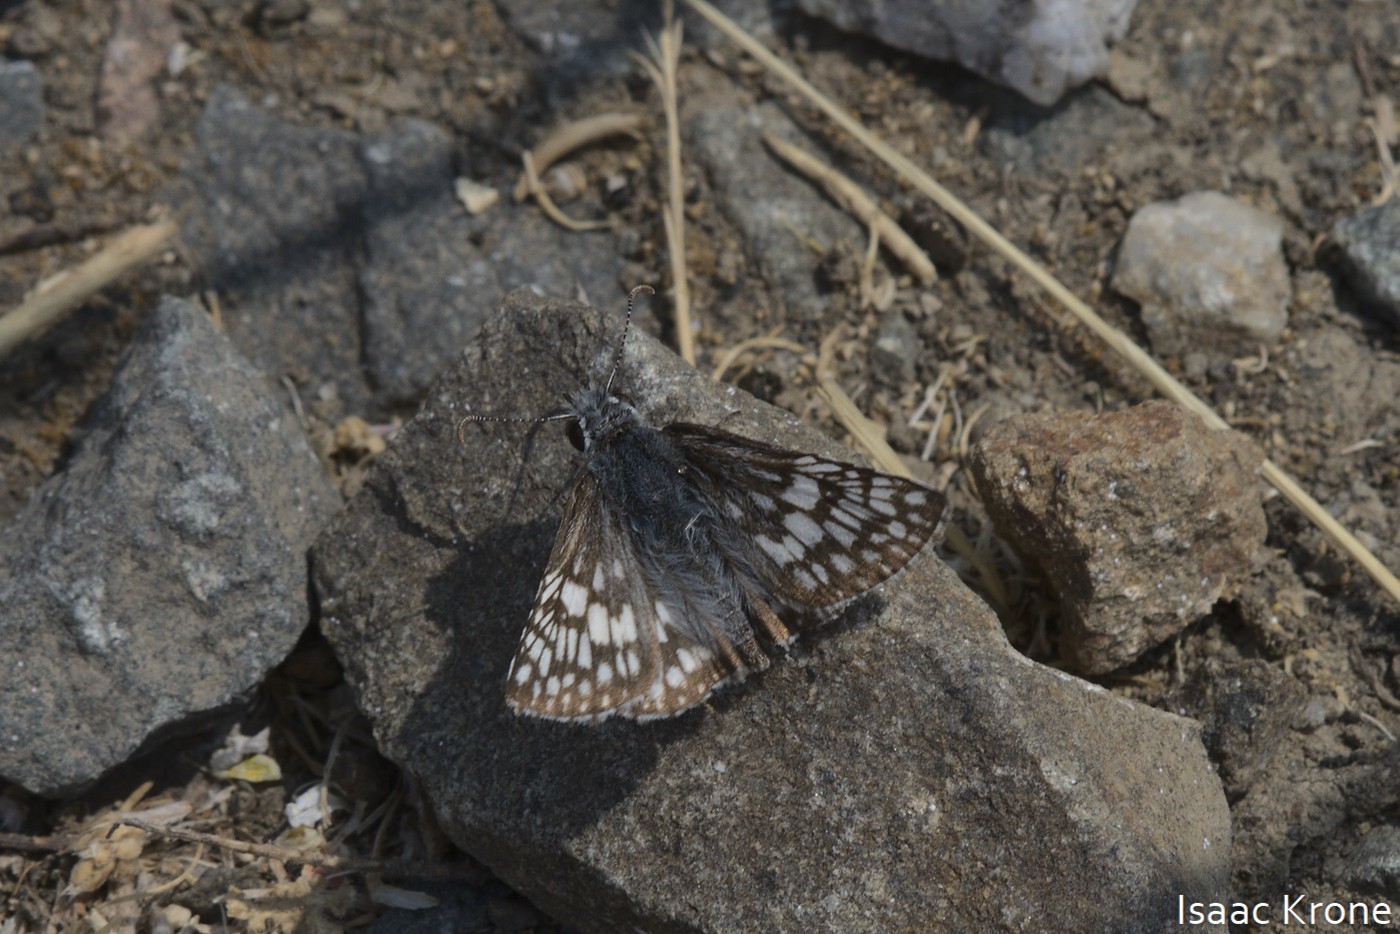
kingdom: Animalia
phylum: Arthropoda
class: Insecta
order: Lepidoptera
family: Hesperiidae
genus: Burnsius
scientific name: Burnsius communis
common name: Common checkered-skipper
